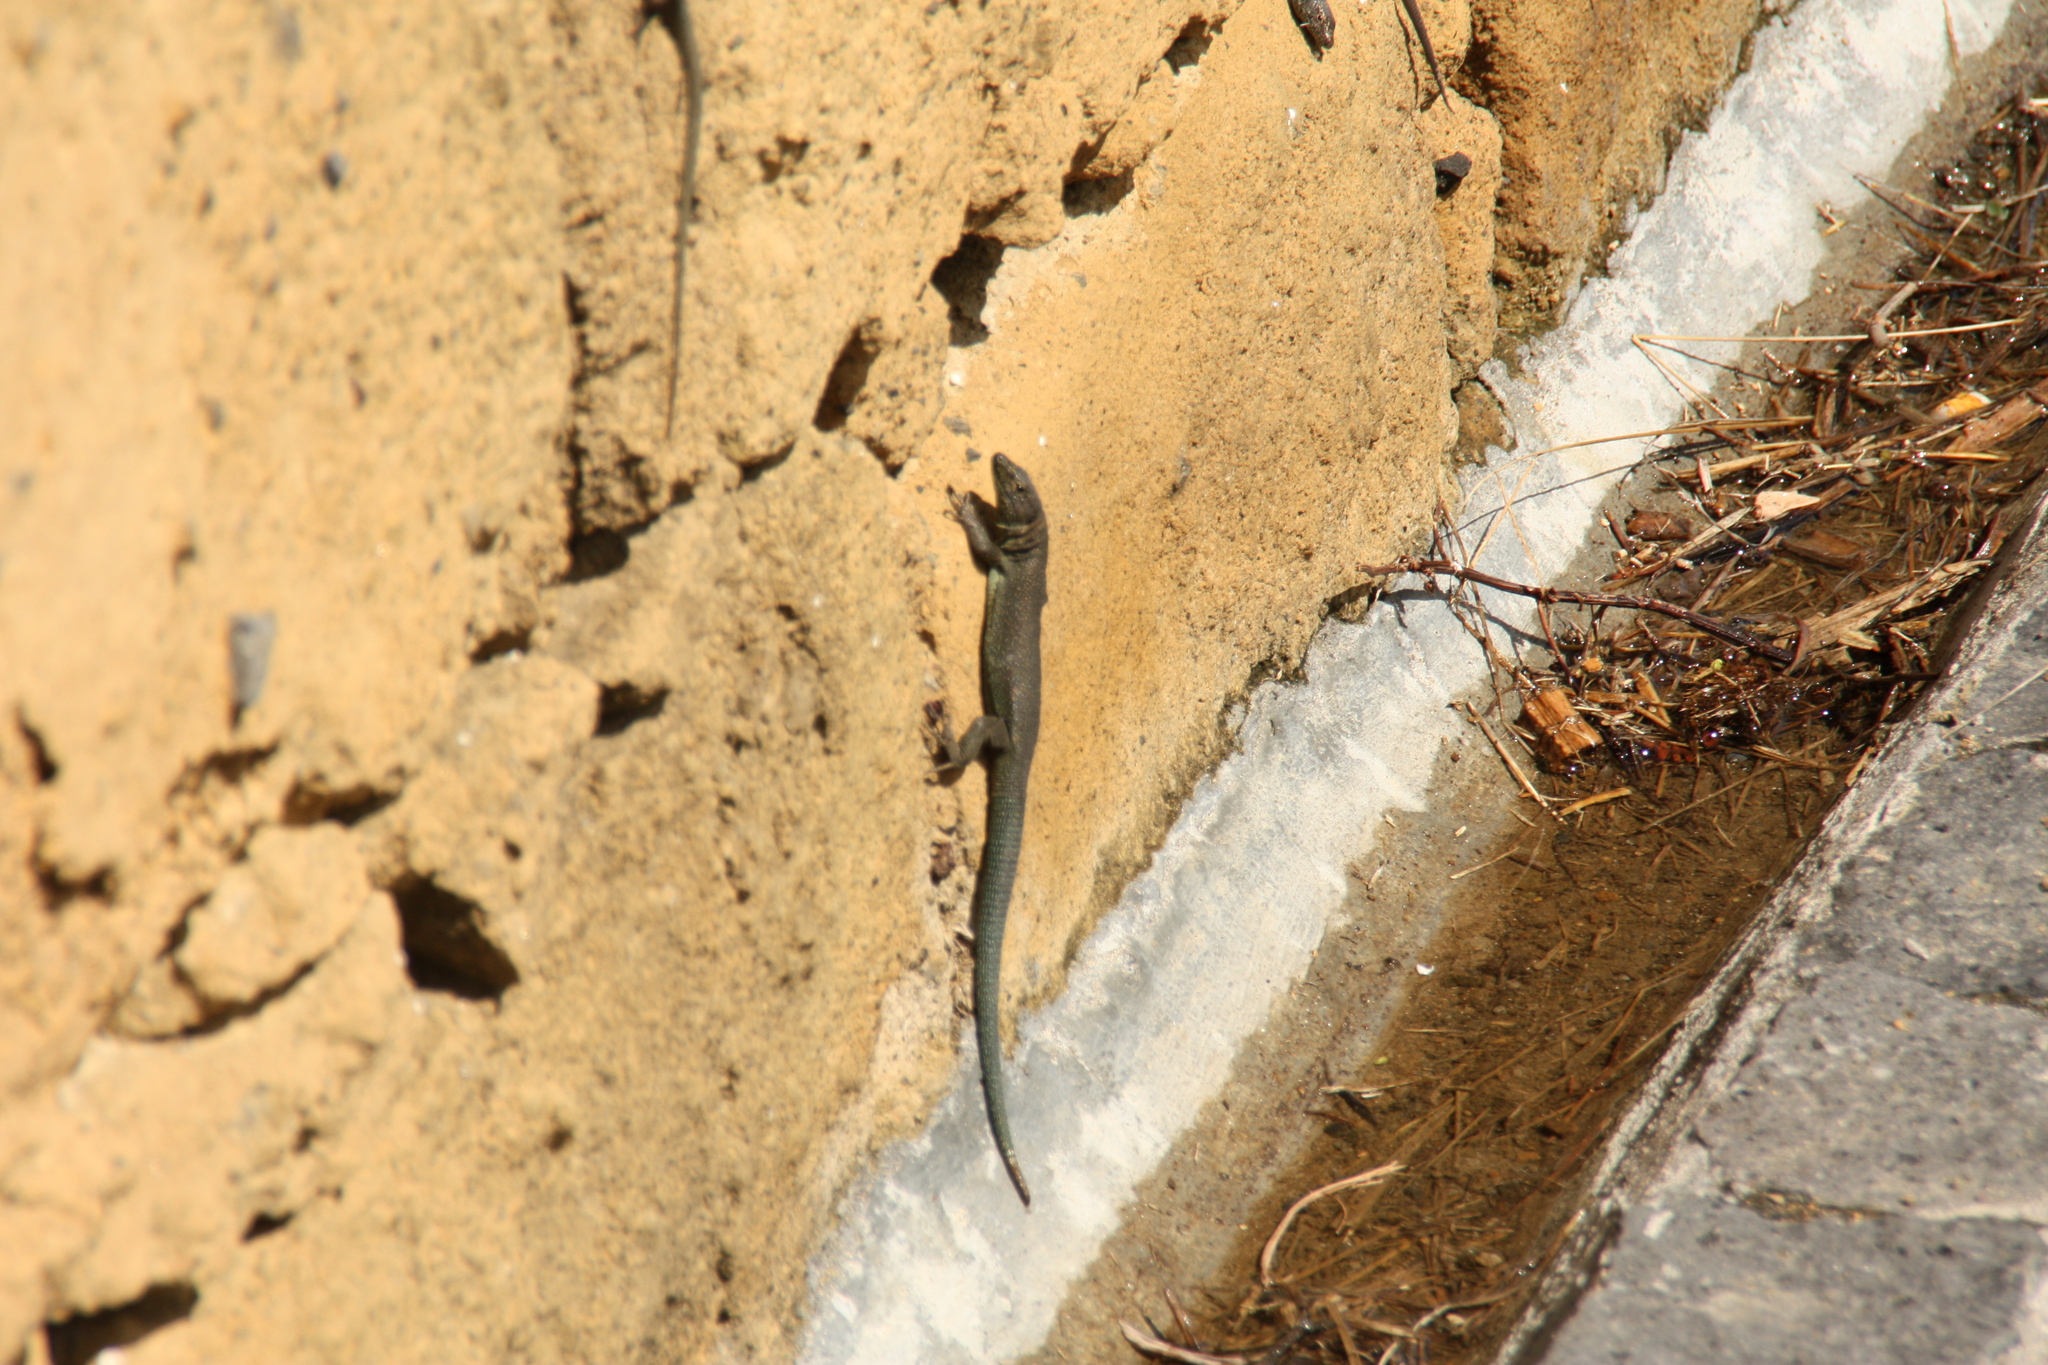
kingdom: Animalia
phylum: Chordata
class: Squamata
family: Lacertidae
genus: Teira
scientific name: Teira dugesii
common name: Madeira lizard
